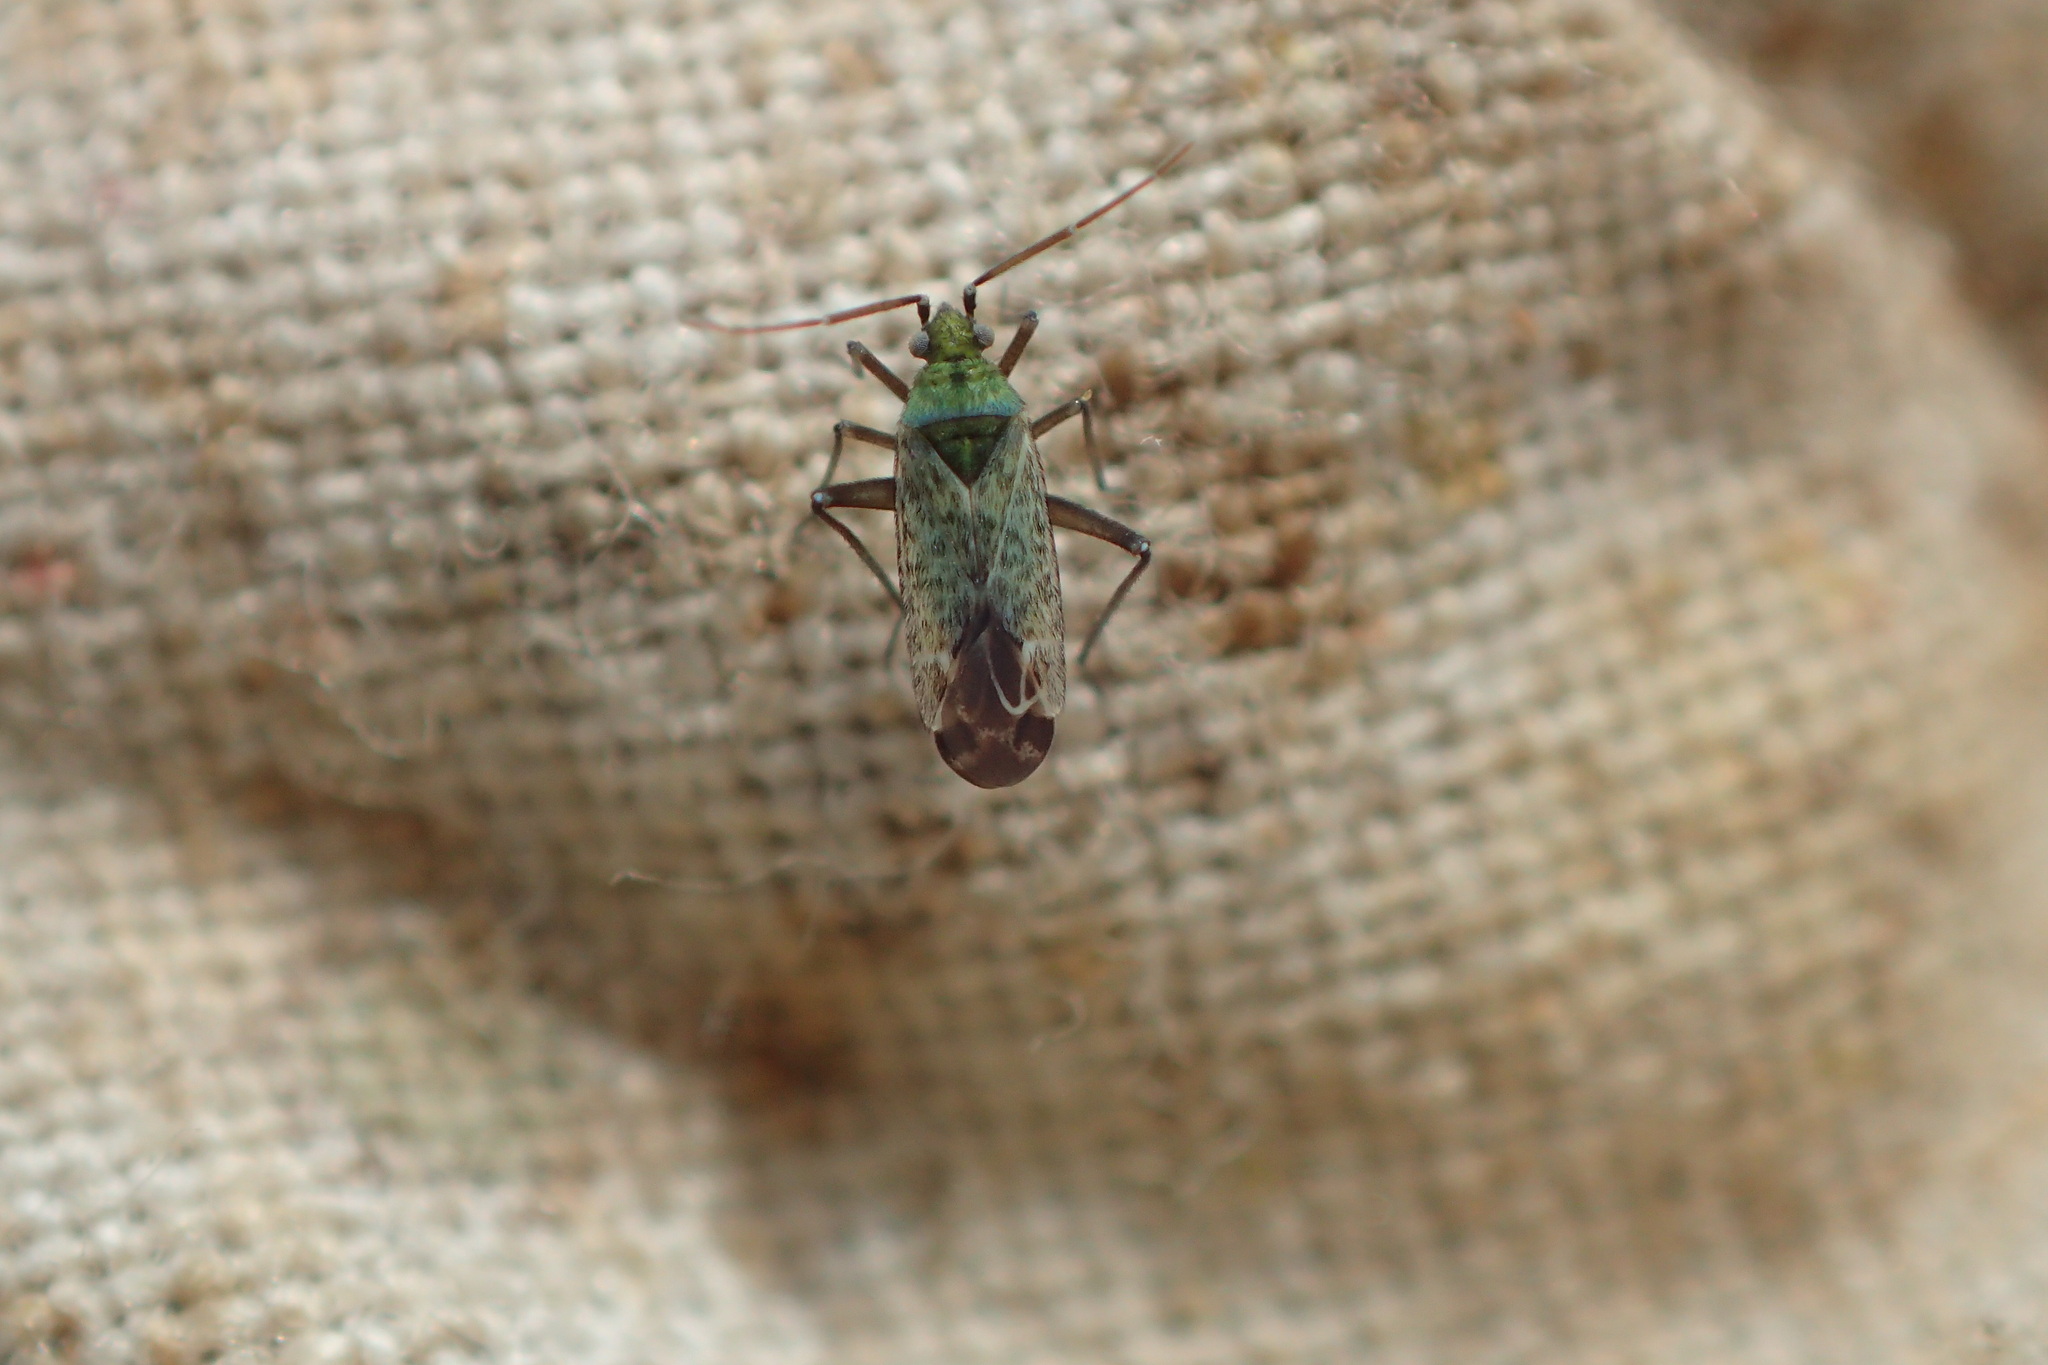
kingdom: Animalia
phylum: Arthropoda
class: Insecta
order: Hemiptera
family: Miridae
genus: Macrotylus
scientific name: Macrotylus paykullii
